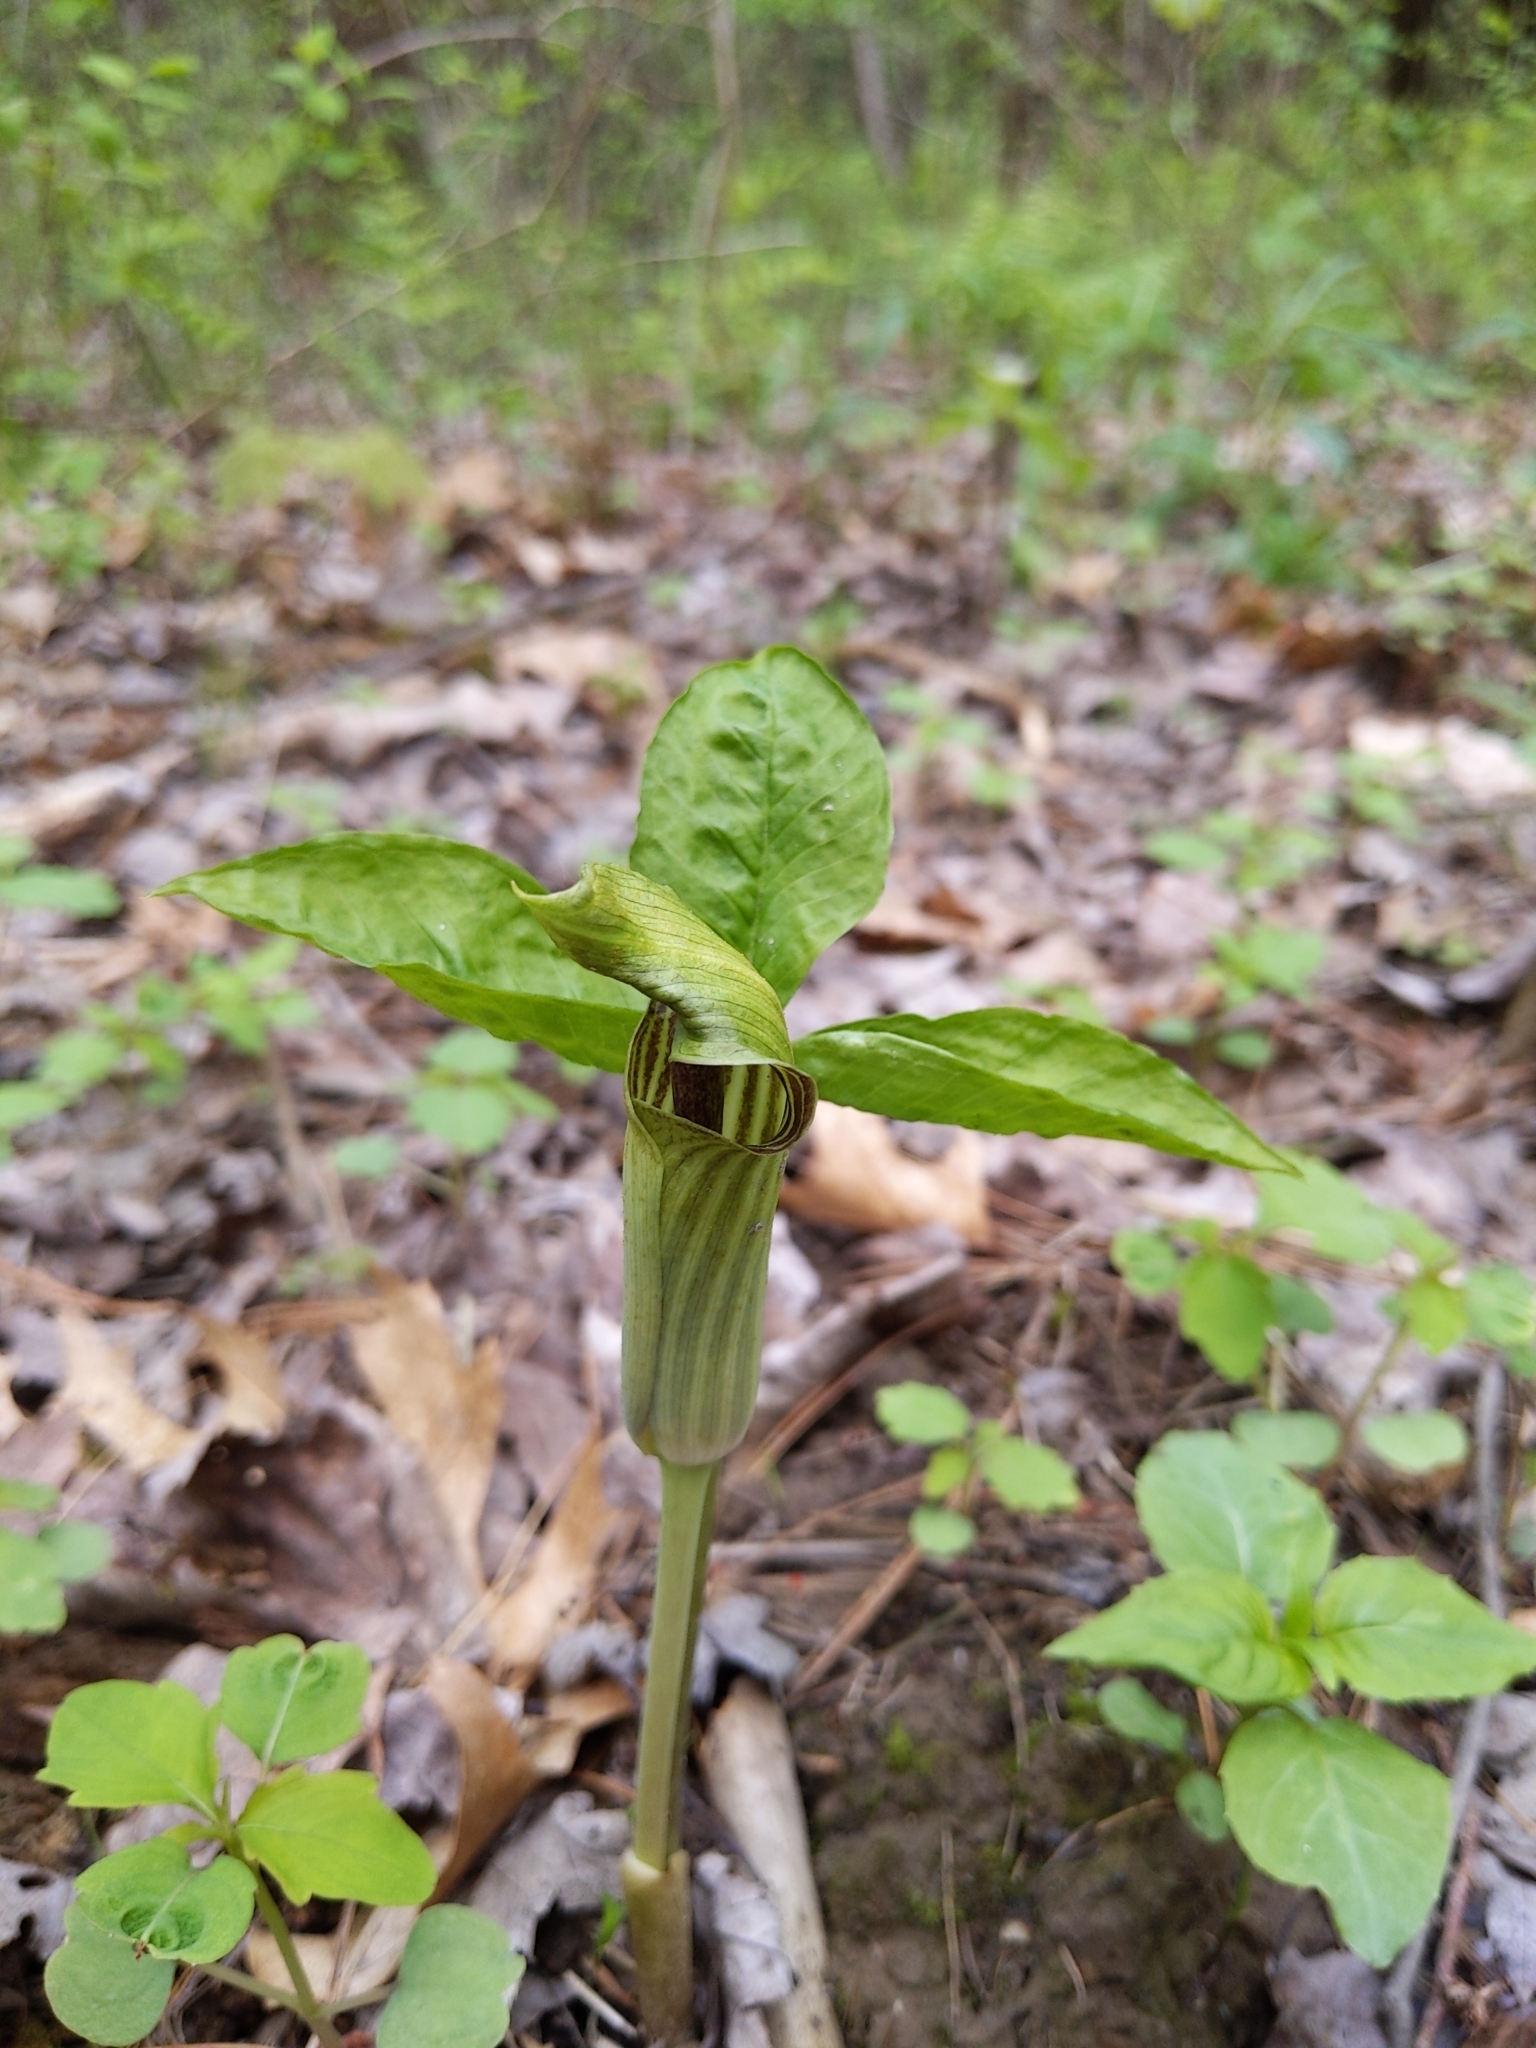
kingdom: Plantae
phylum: Tracheophyta
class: Liliopsida
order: Alismatales
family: Araceae
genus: Arisaema
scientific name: Arisaema triphyllum
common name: Jack-in-the-pulpit
